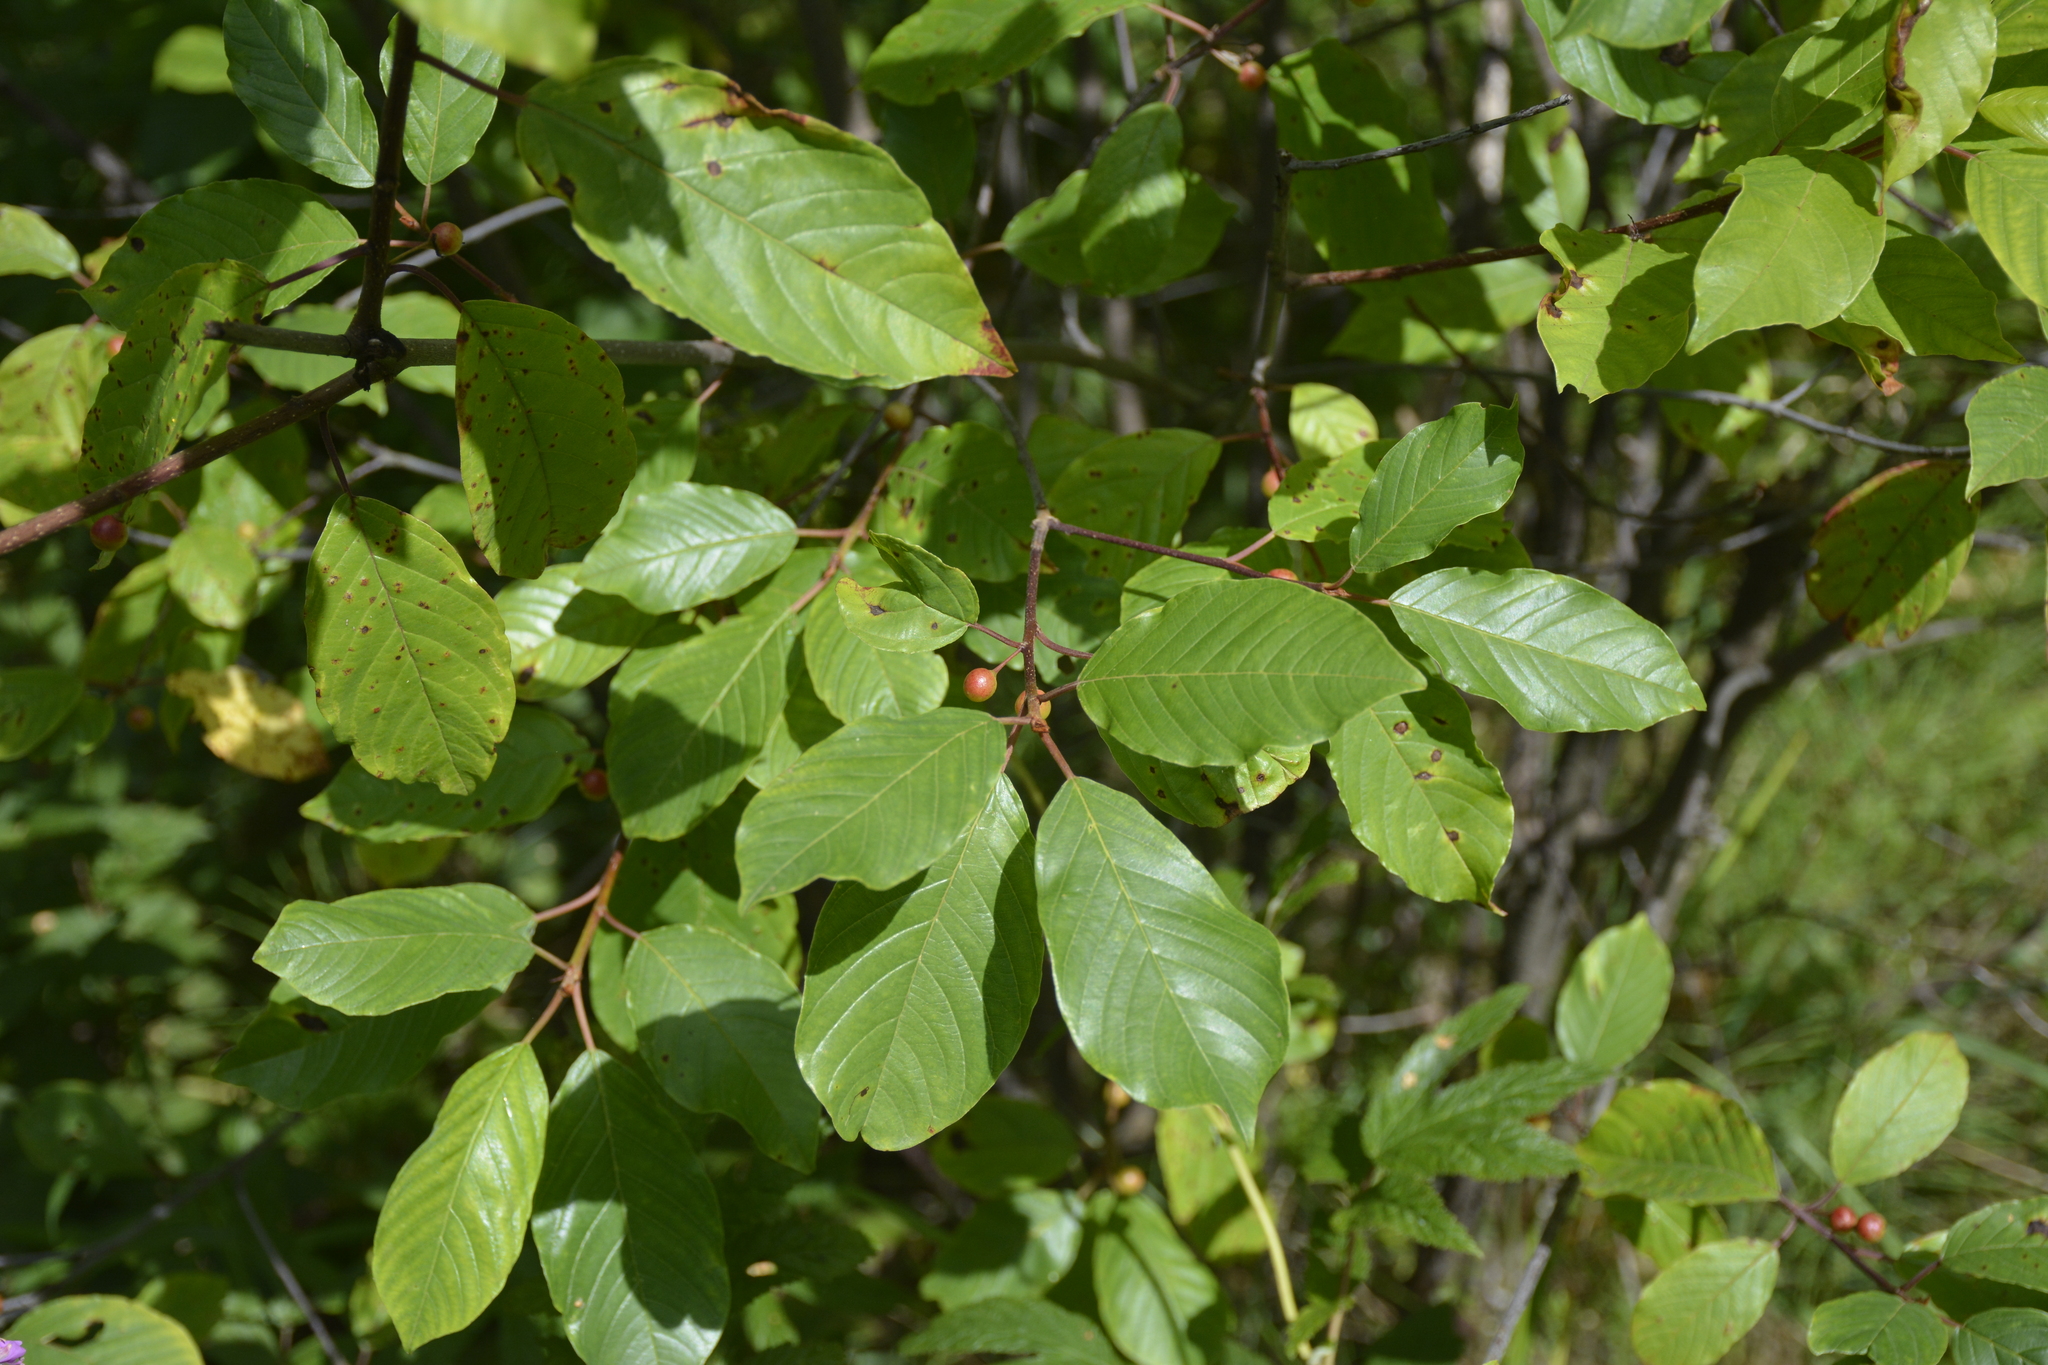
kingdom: Plantae
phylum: Tracheophyta
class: Magnoliopsida
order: Rosales
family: Rhamnaceae
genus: Frangula
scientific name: Frangula alnus
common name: Alder buckthorn
